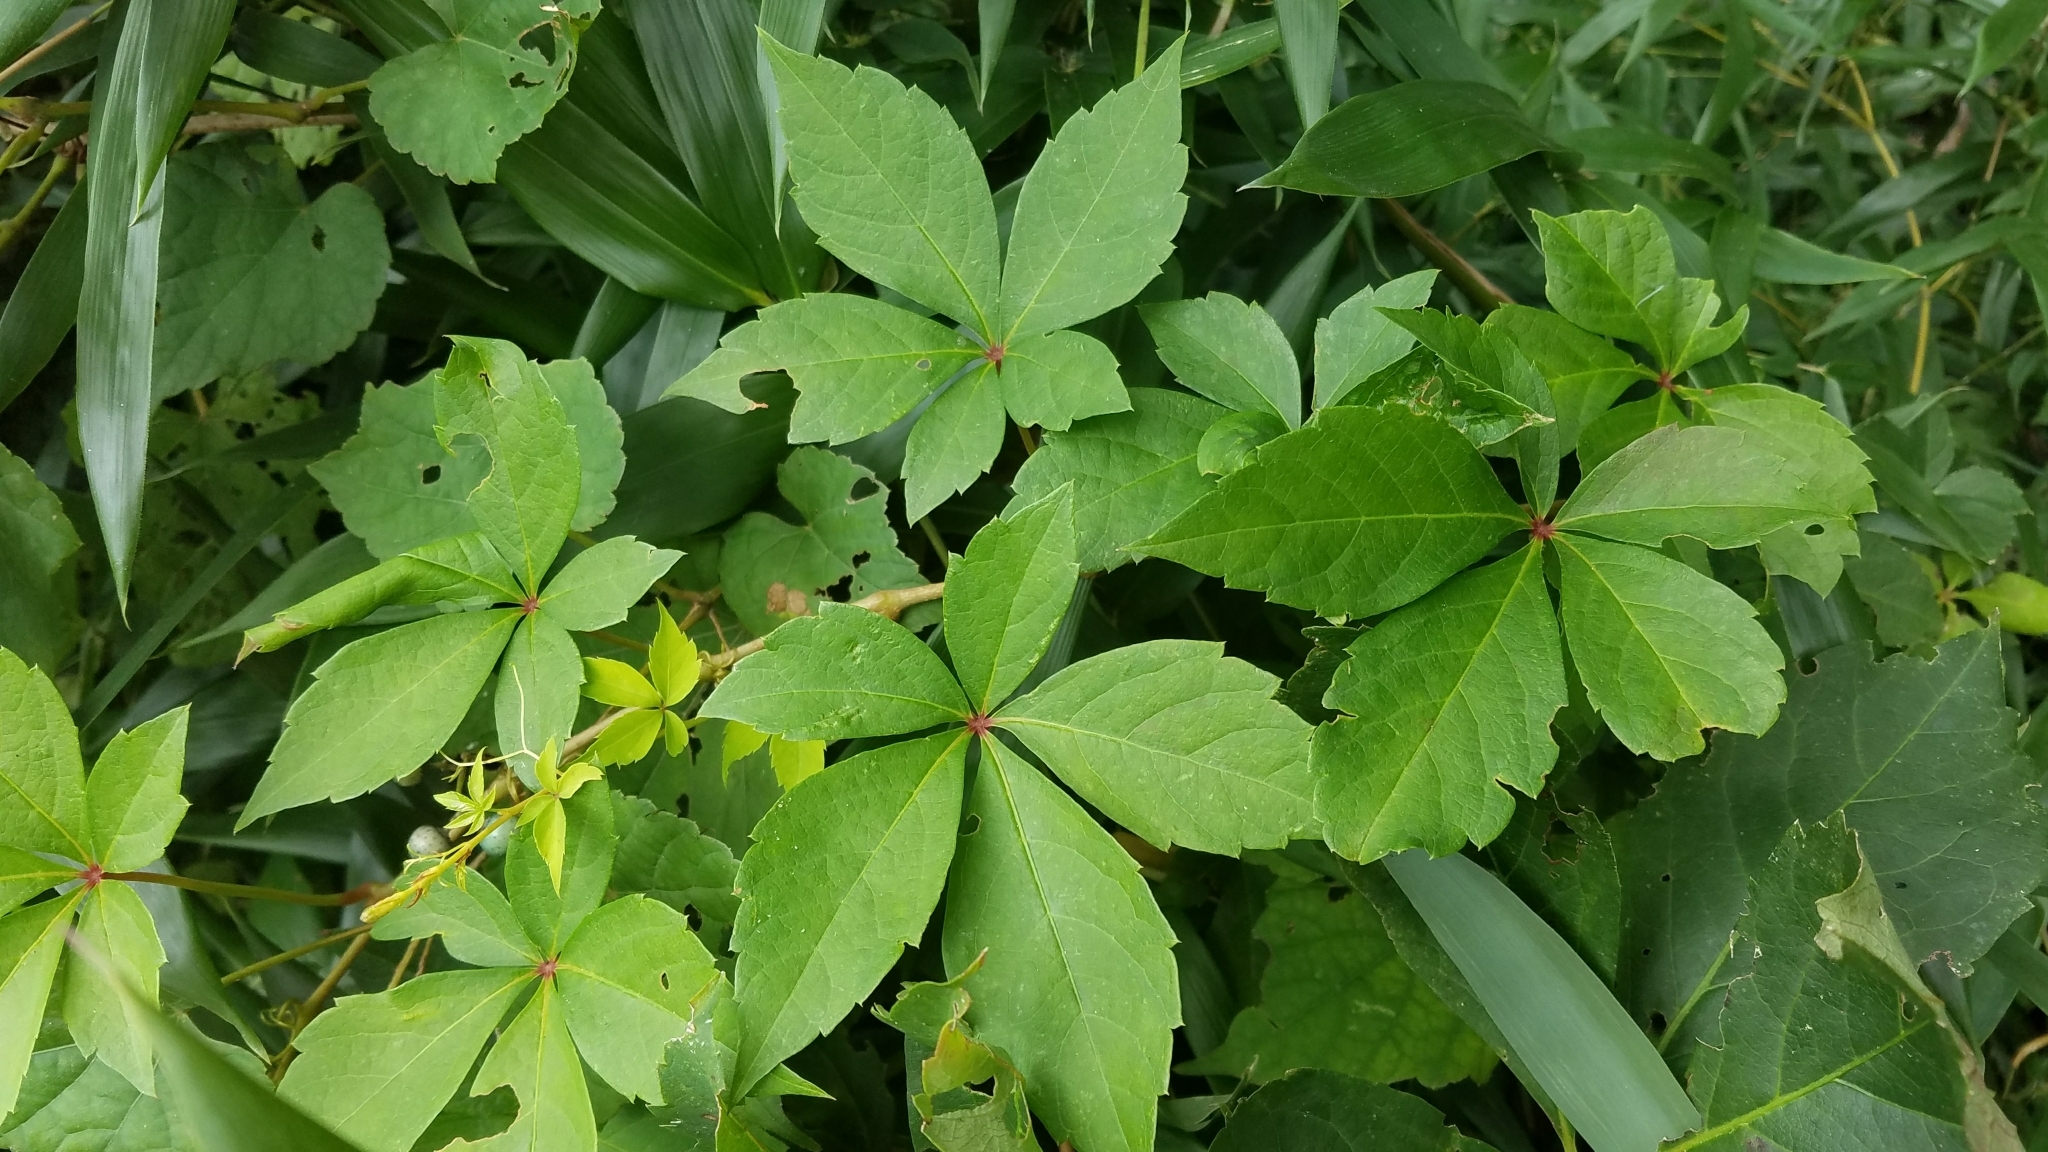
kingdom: Plantae
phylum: Tracheophyta
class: Magnoliopsida
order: Vitales
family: Vitaceae
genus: Parthenocissus
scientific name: Parthenocissus quinquefolia
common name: Virginia-creeper
